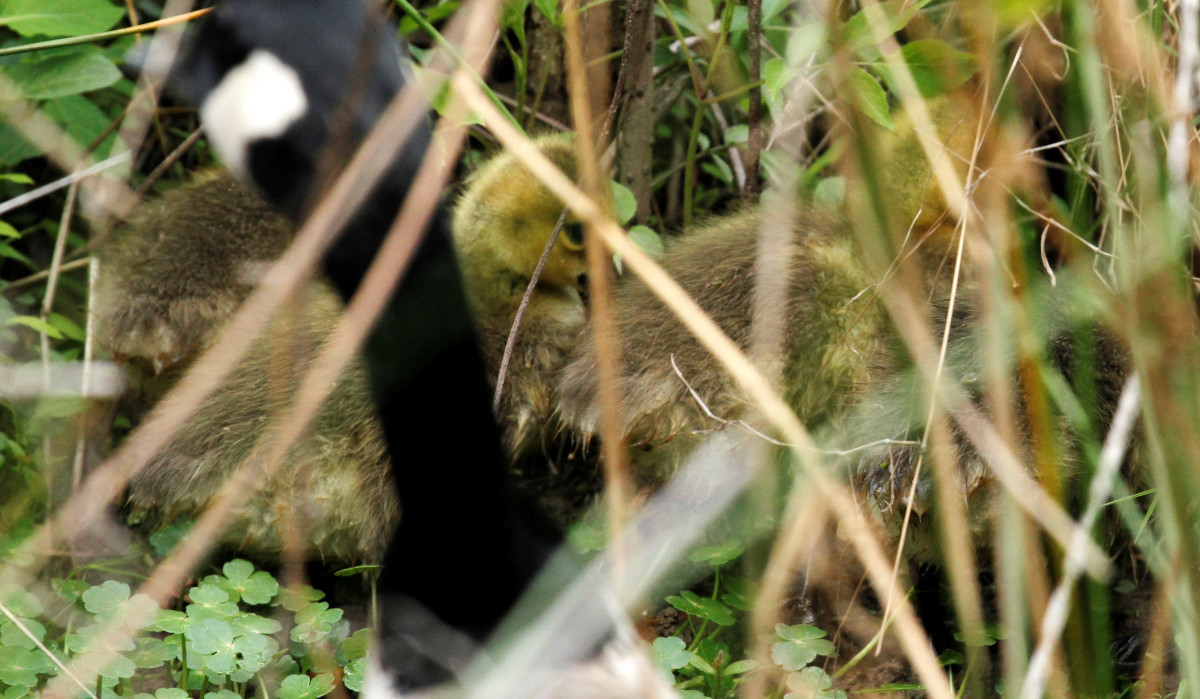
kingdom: Animalia
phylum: Chordata
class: Aves
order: Anseriformes
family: Anatidae
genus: Branta
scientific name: Branta canadensis
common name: Canada goose
